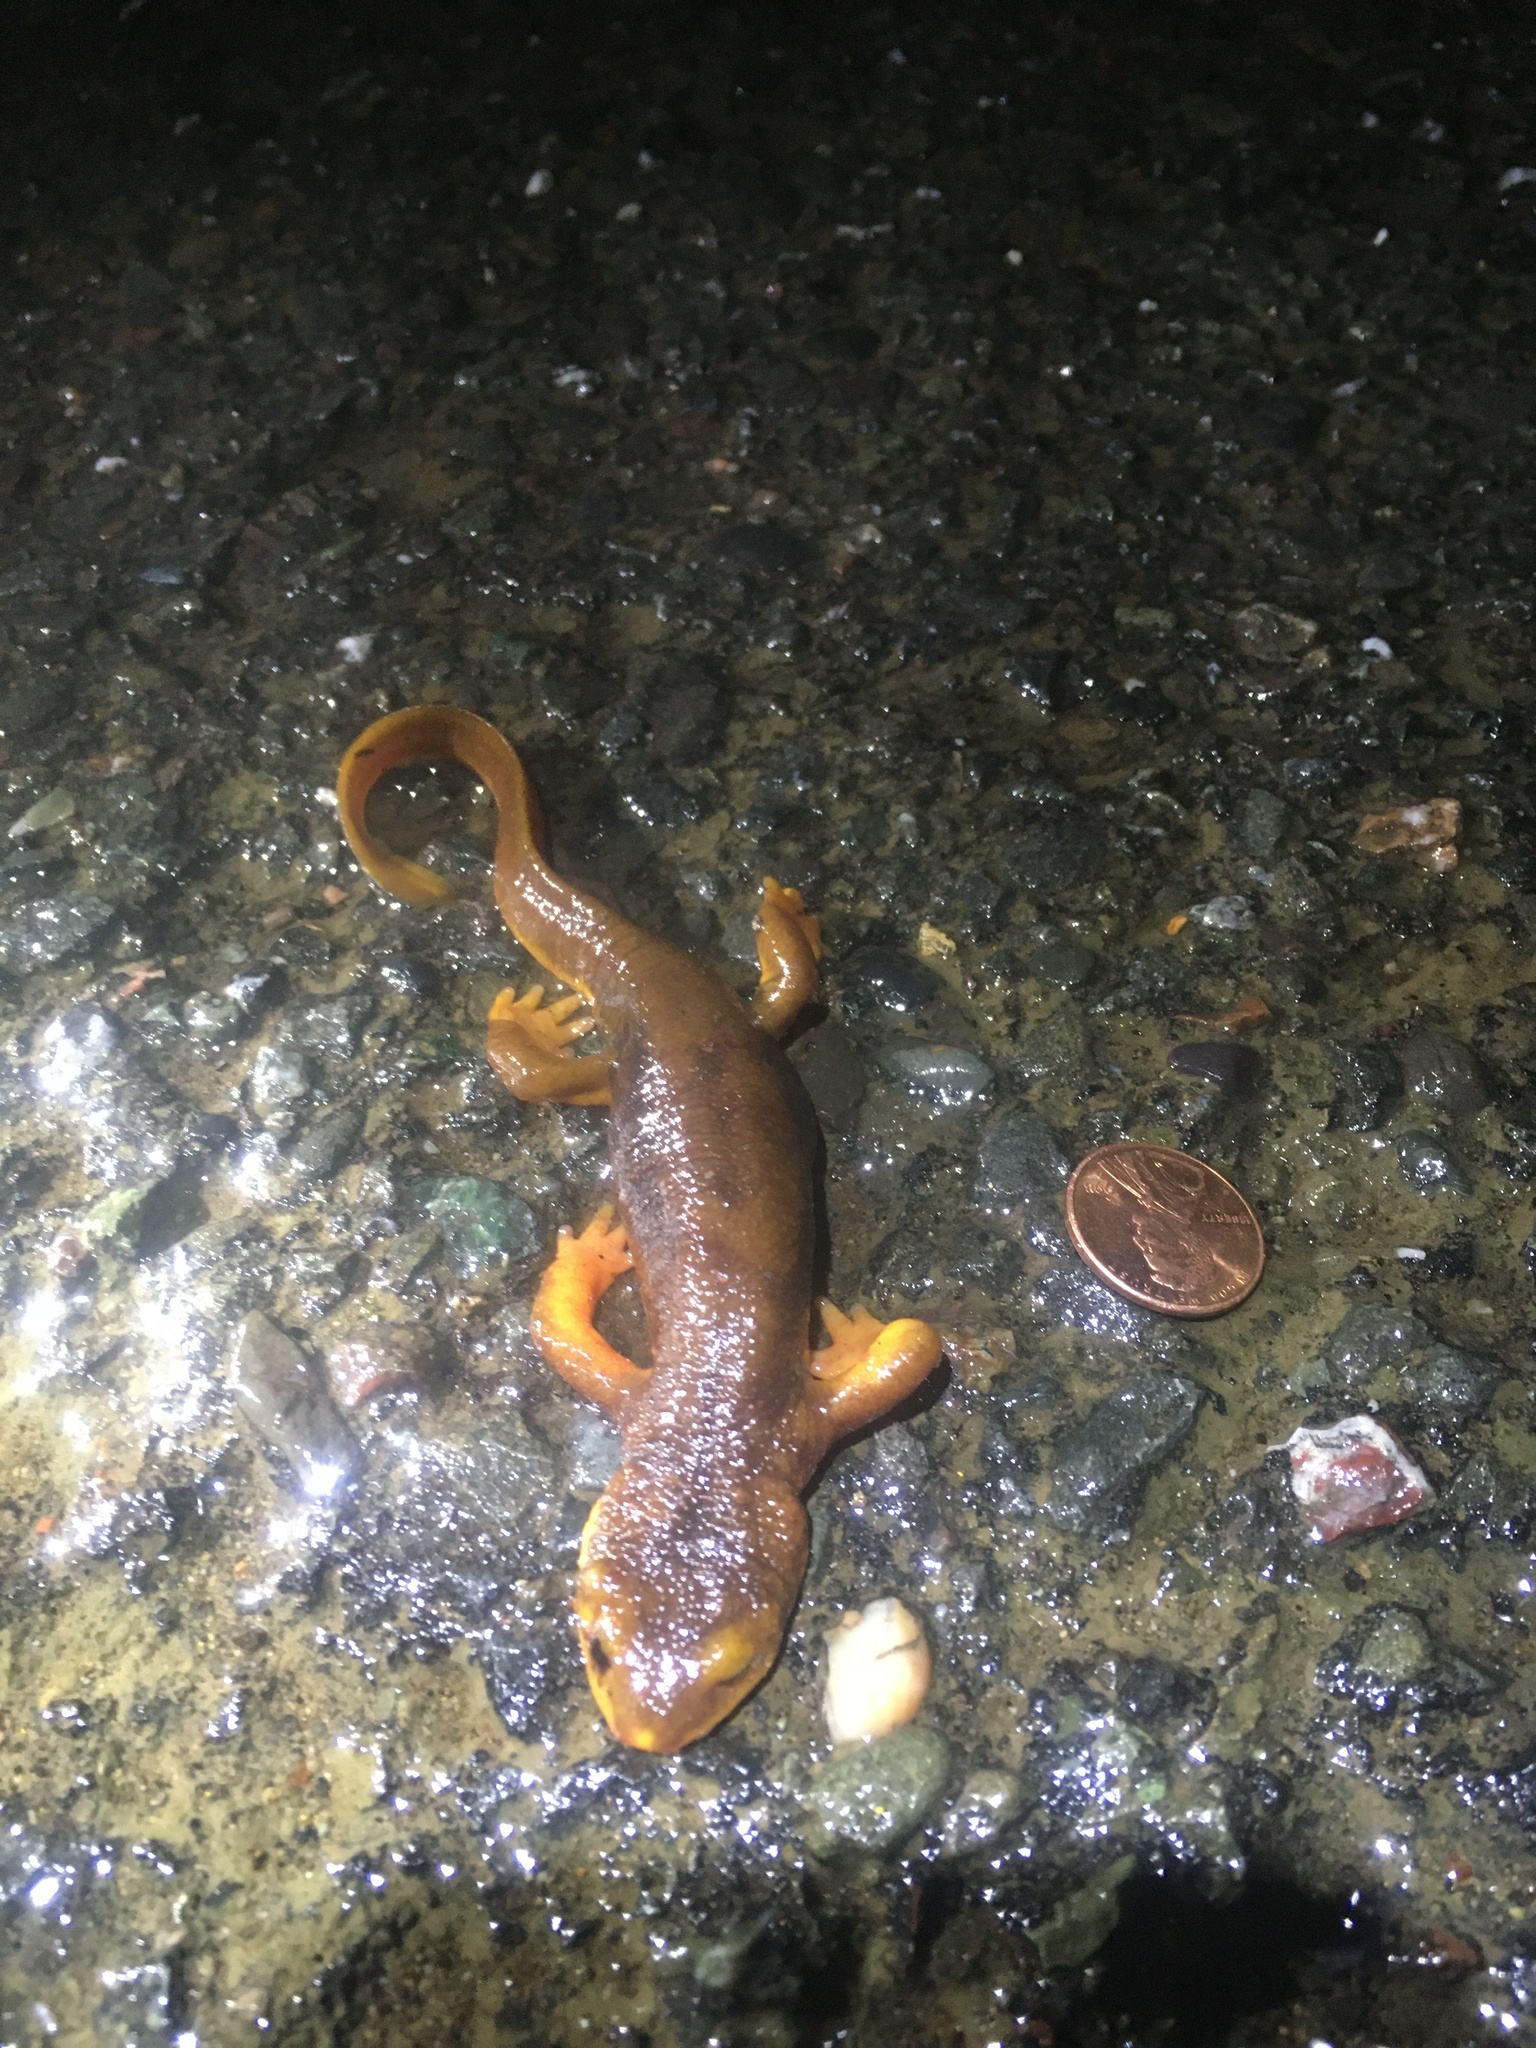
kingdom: Animalia
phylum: Chordata
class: Amphibia
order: Caudata
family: Salamandridae
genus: Taricha
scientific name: Taricha torosa
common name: California newt
